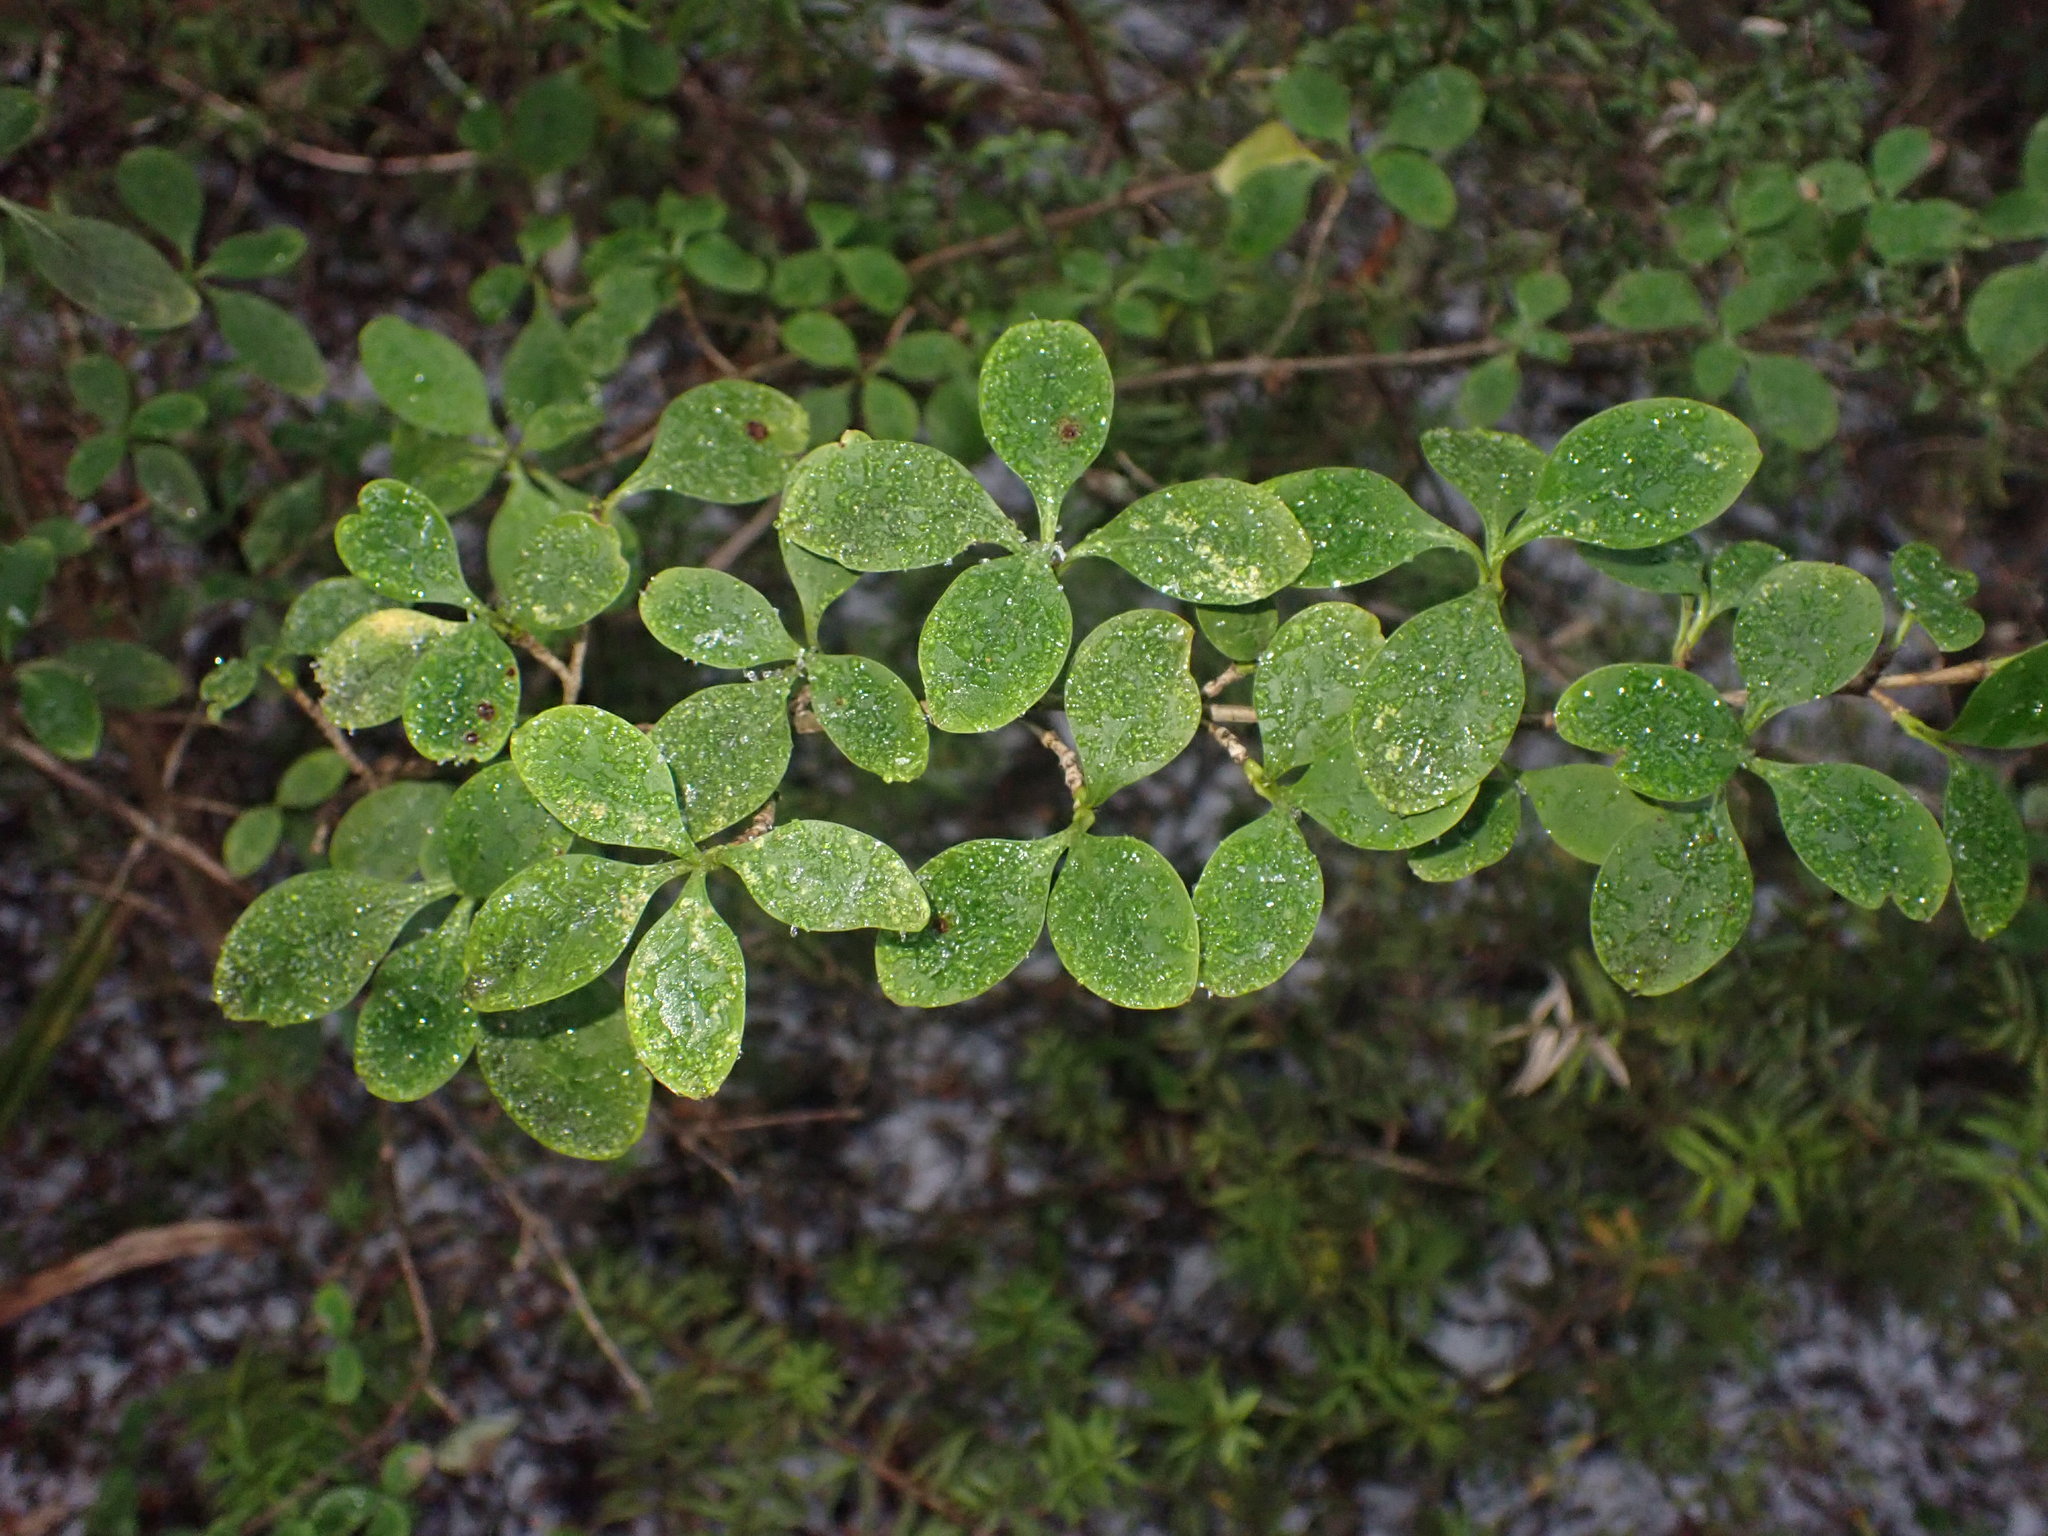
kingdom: Plantae
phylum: Tracheophyta
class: Magnoliopsida
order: Gentianales
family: Rubiaceae
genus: Coprosma
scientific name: Coprosma foetidissima
